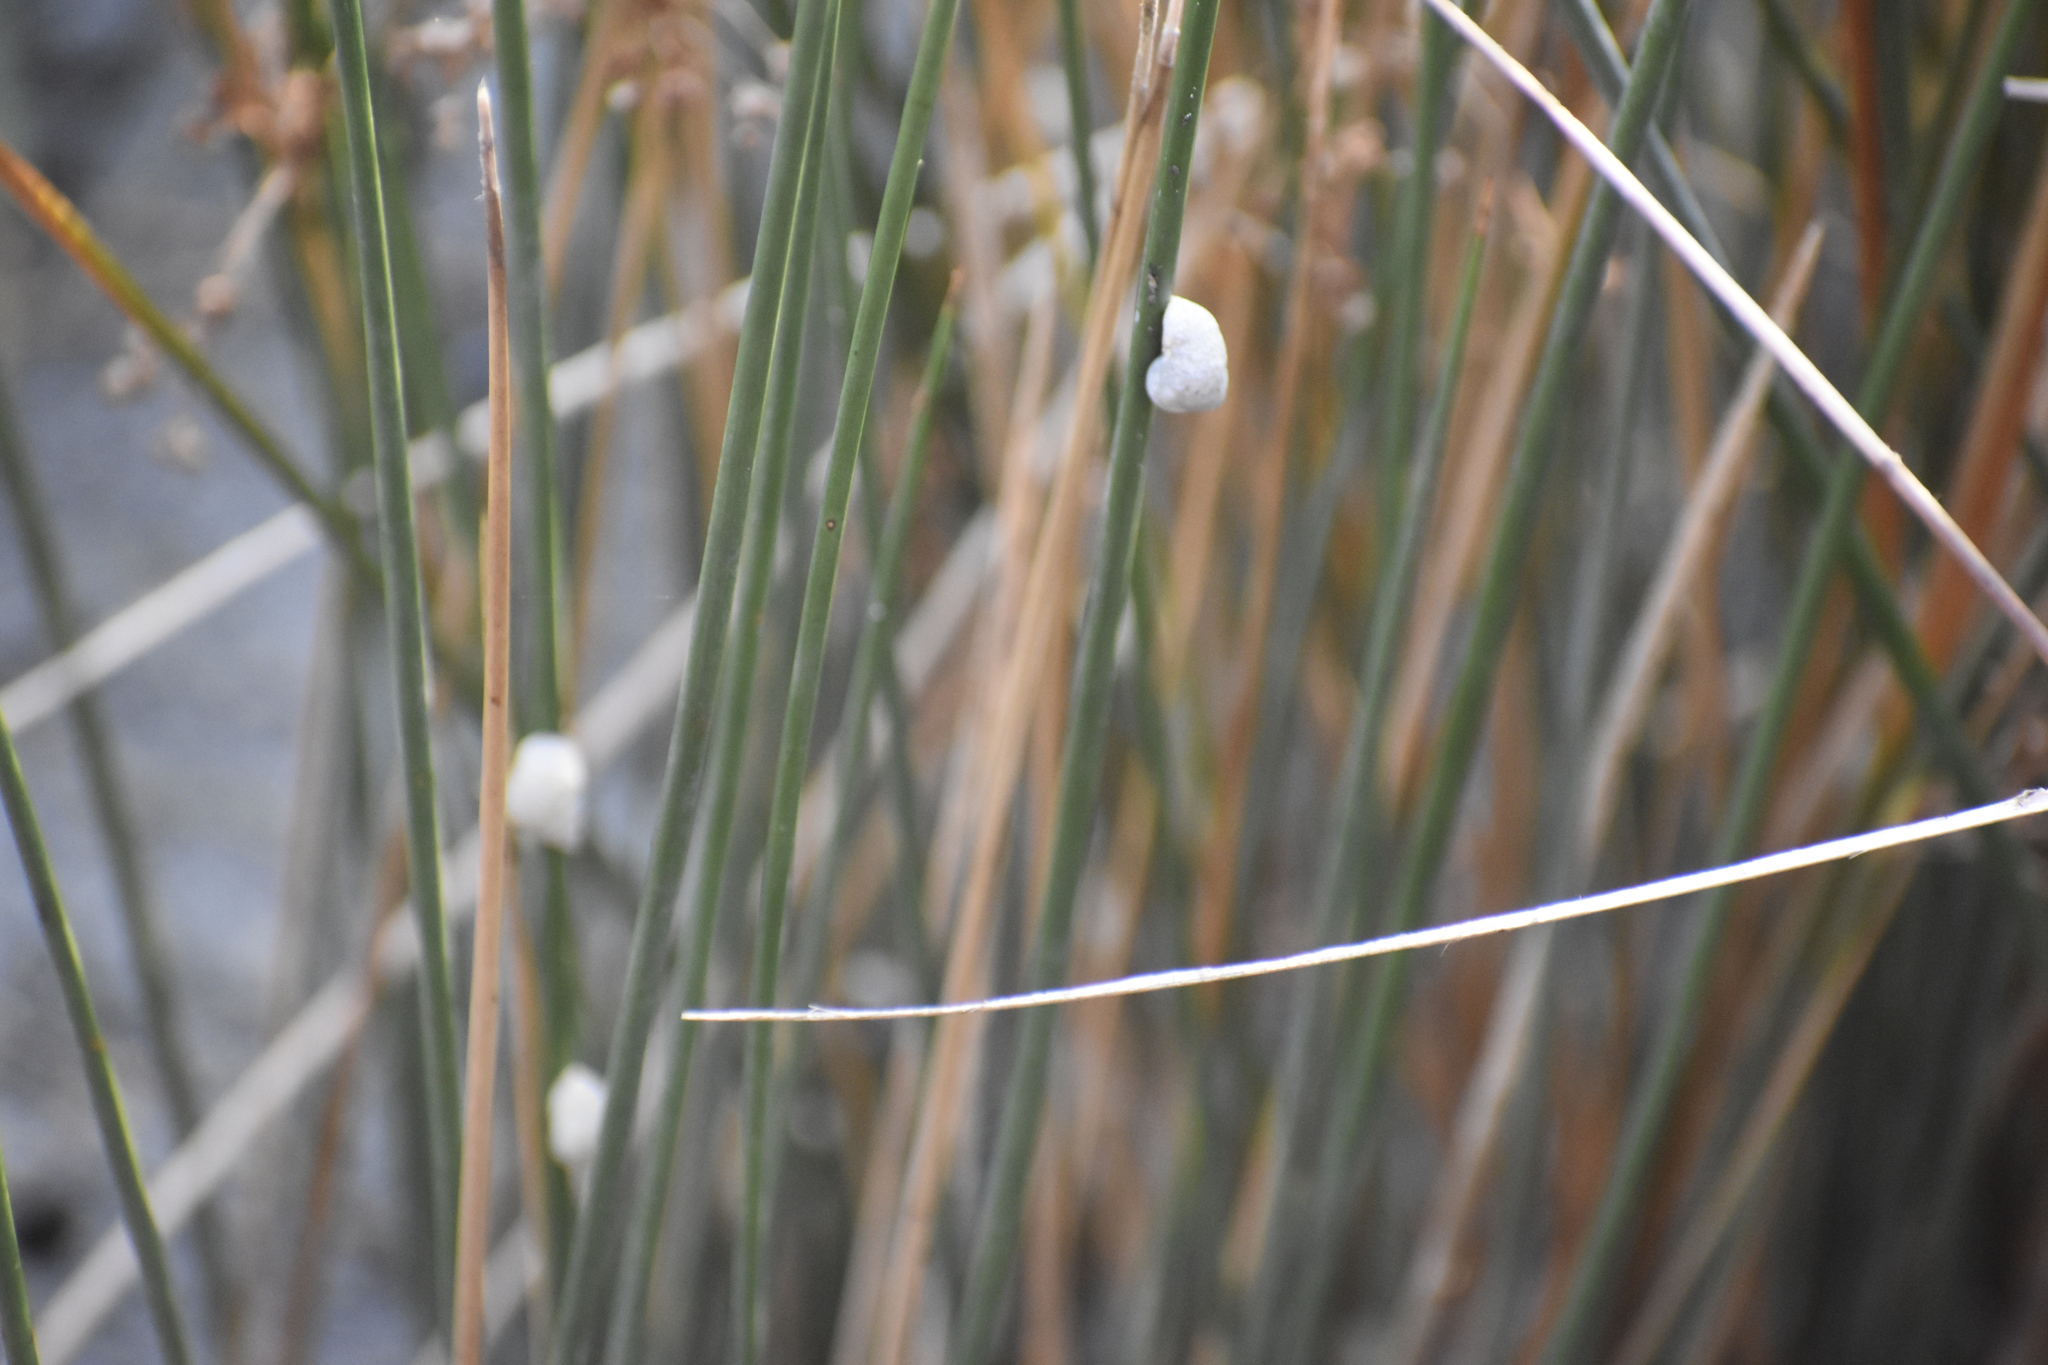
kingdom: Animalia
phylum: Mollusca
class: Gastropoda
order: Littorinimorpha
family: Littorinidae
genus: Littoraria
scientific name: Littoraria irrorata
